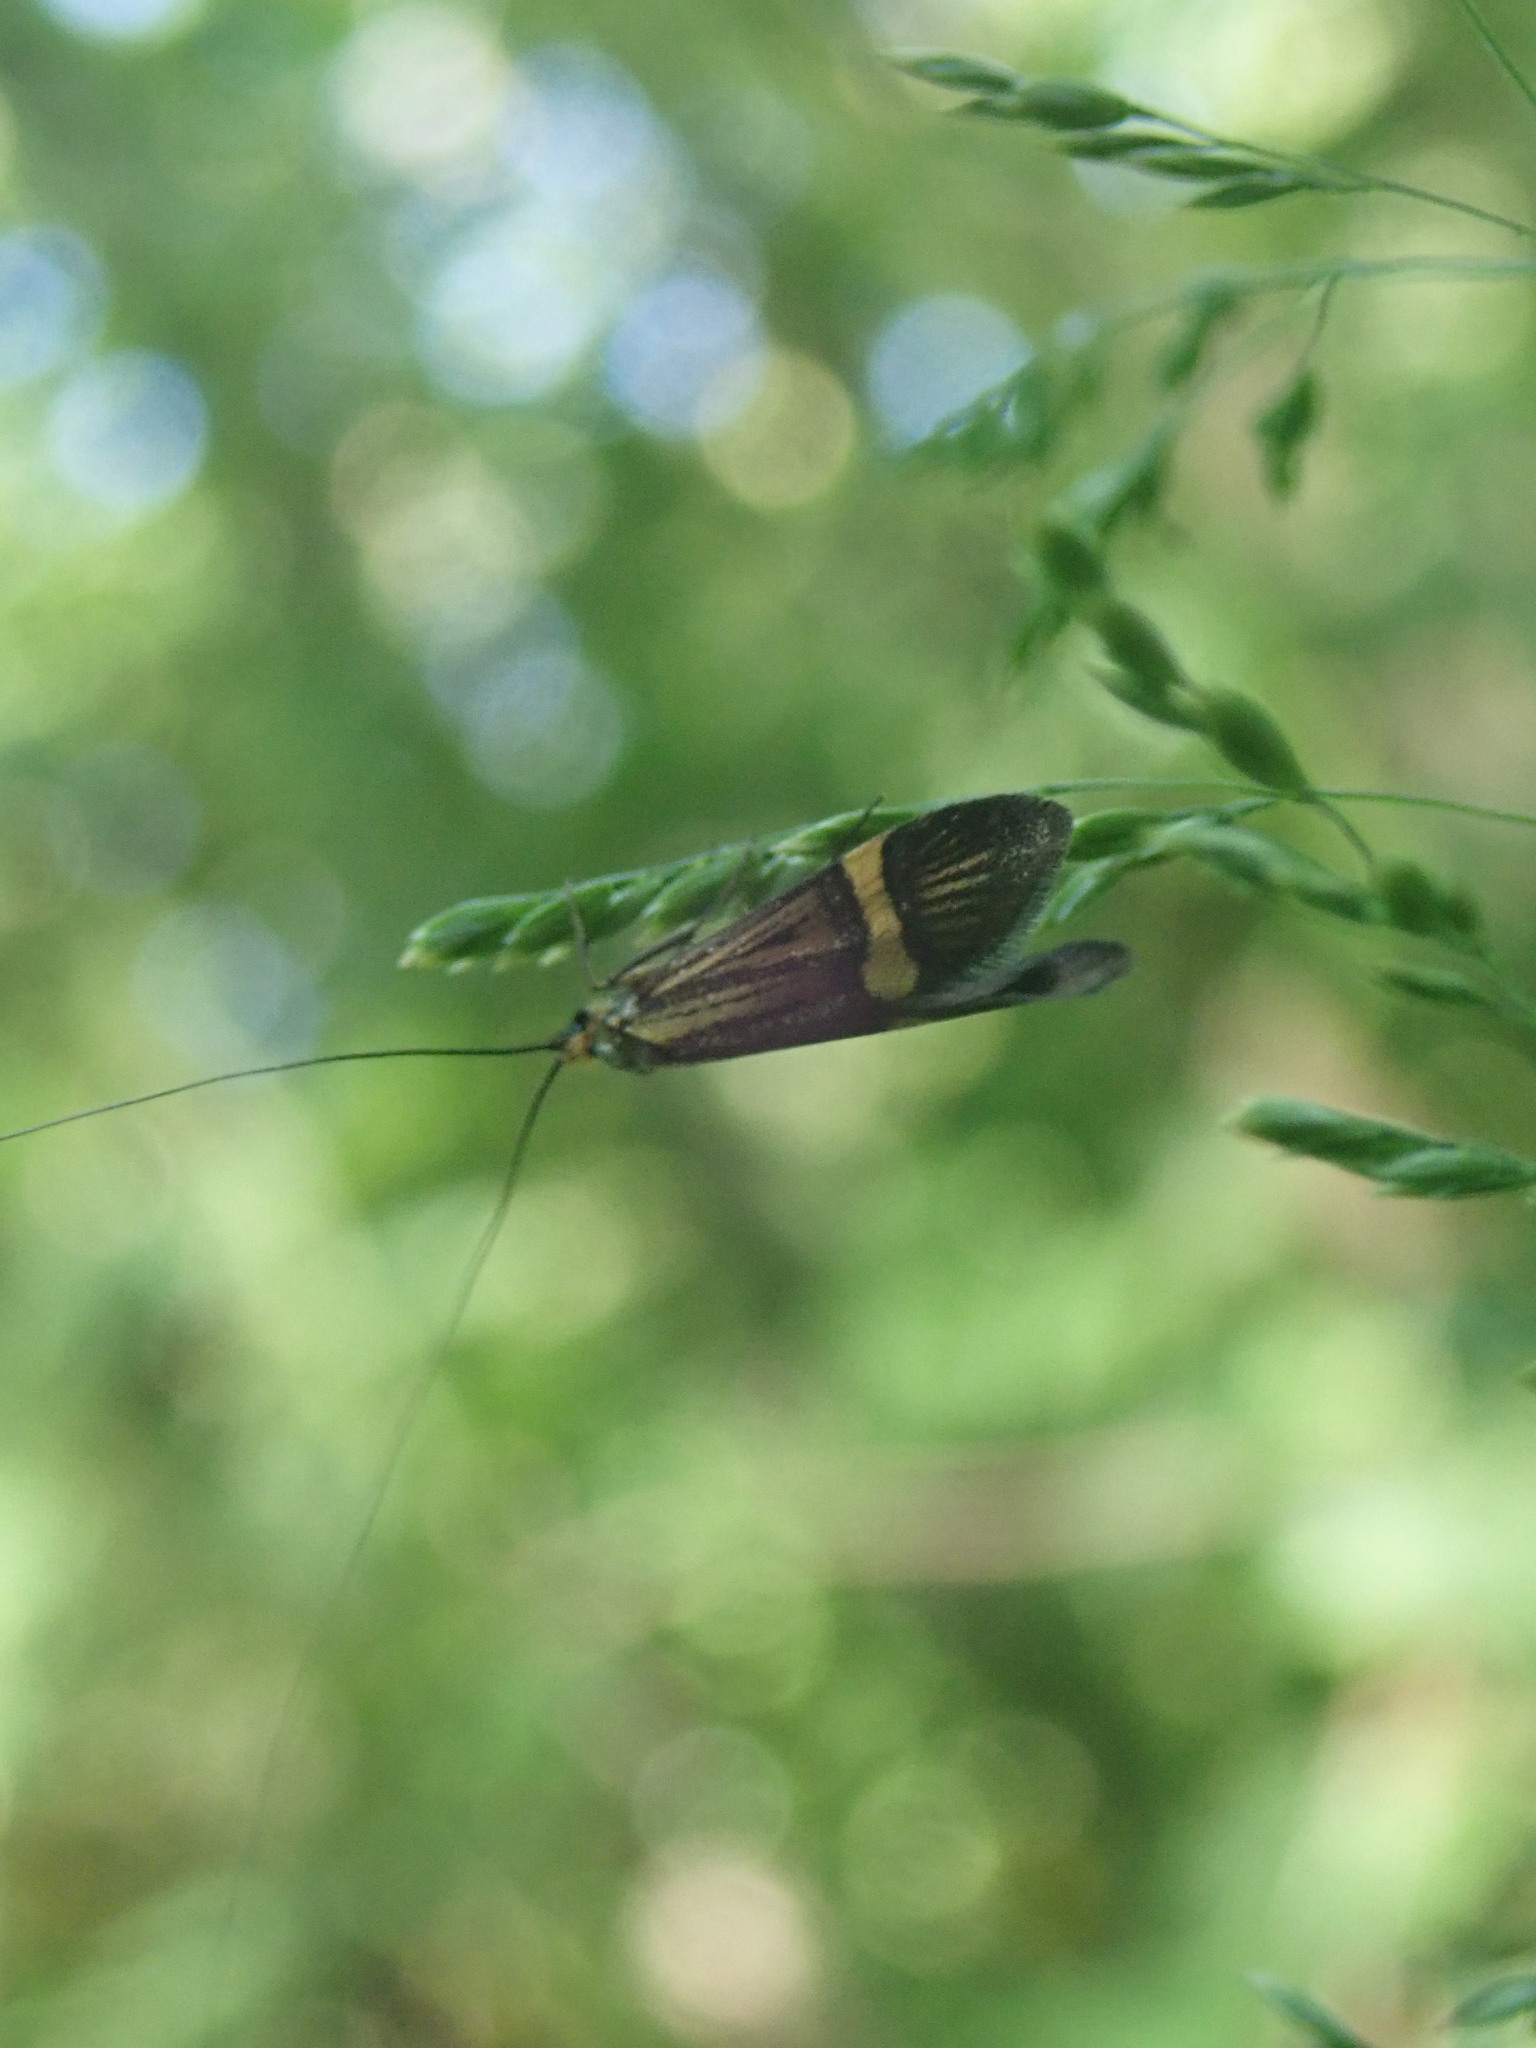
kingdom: Animalia
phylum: Arthropoda
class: Insecta
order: Lepidoptera
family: Adelidae
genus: Nemophora
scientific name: Nemophora degeerella
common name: Yellow-barred long-horn
